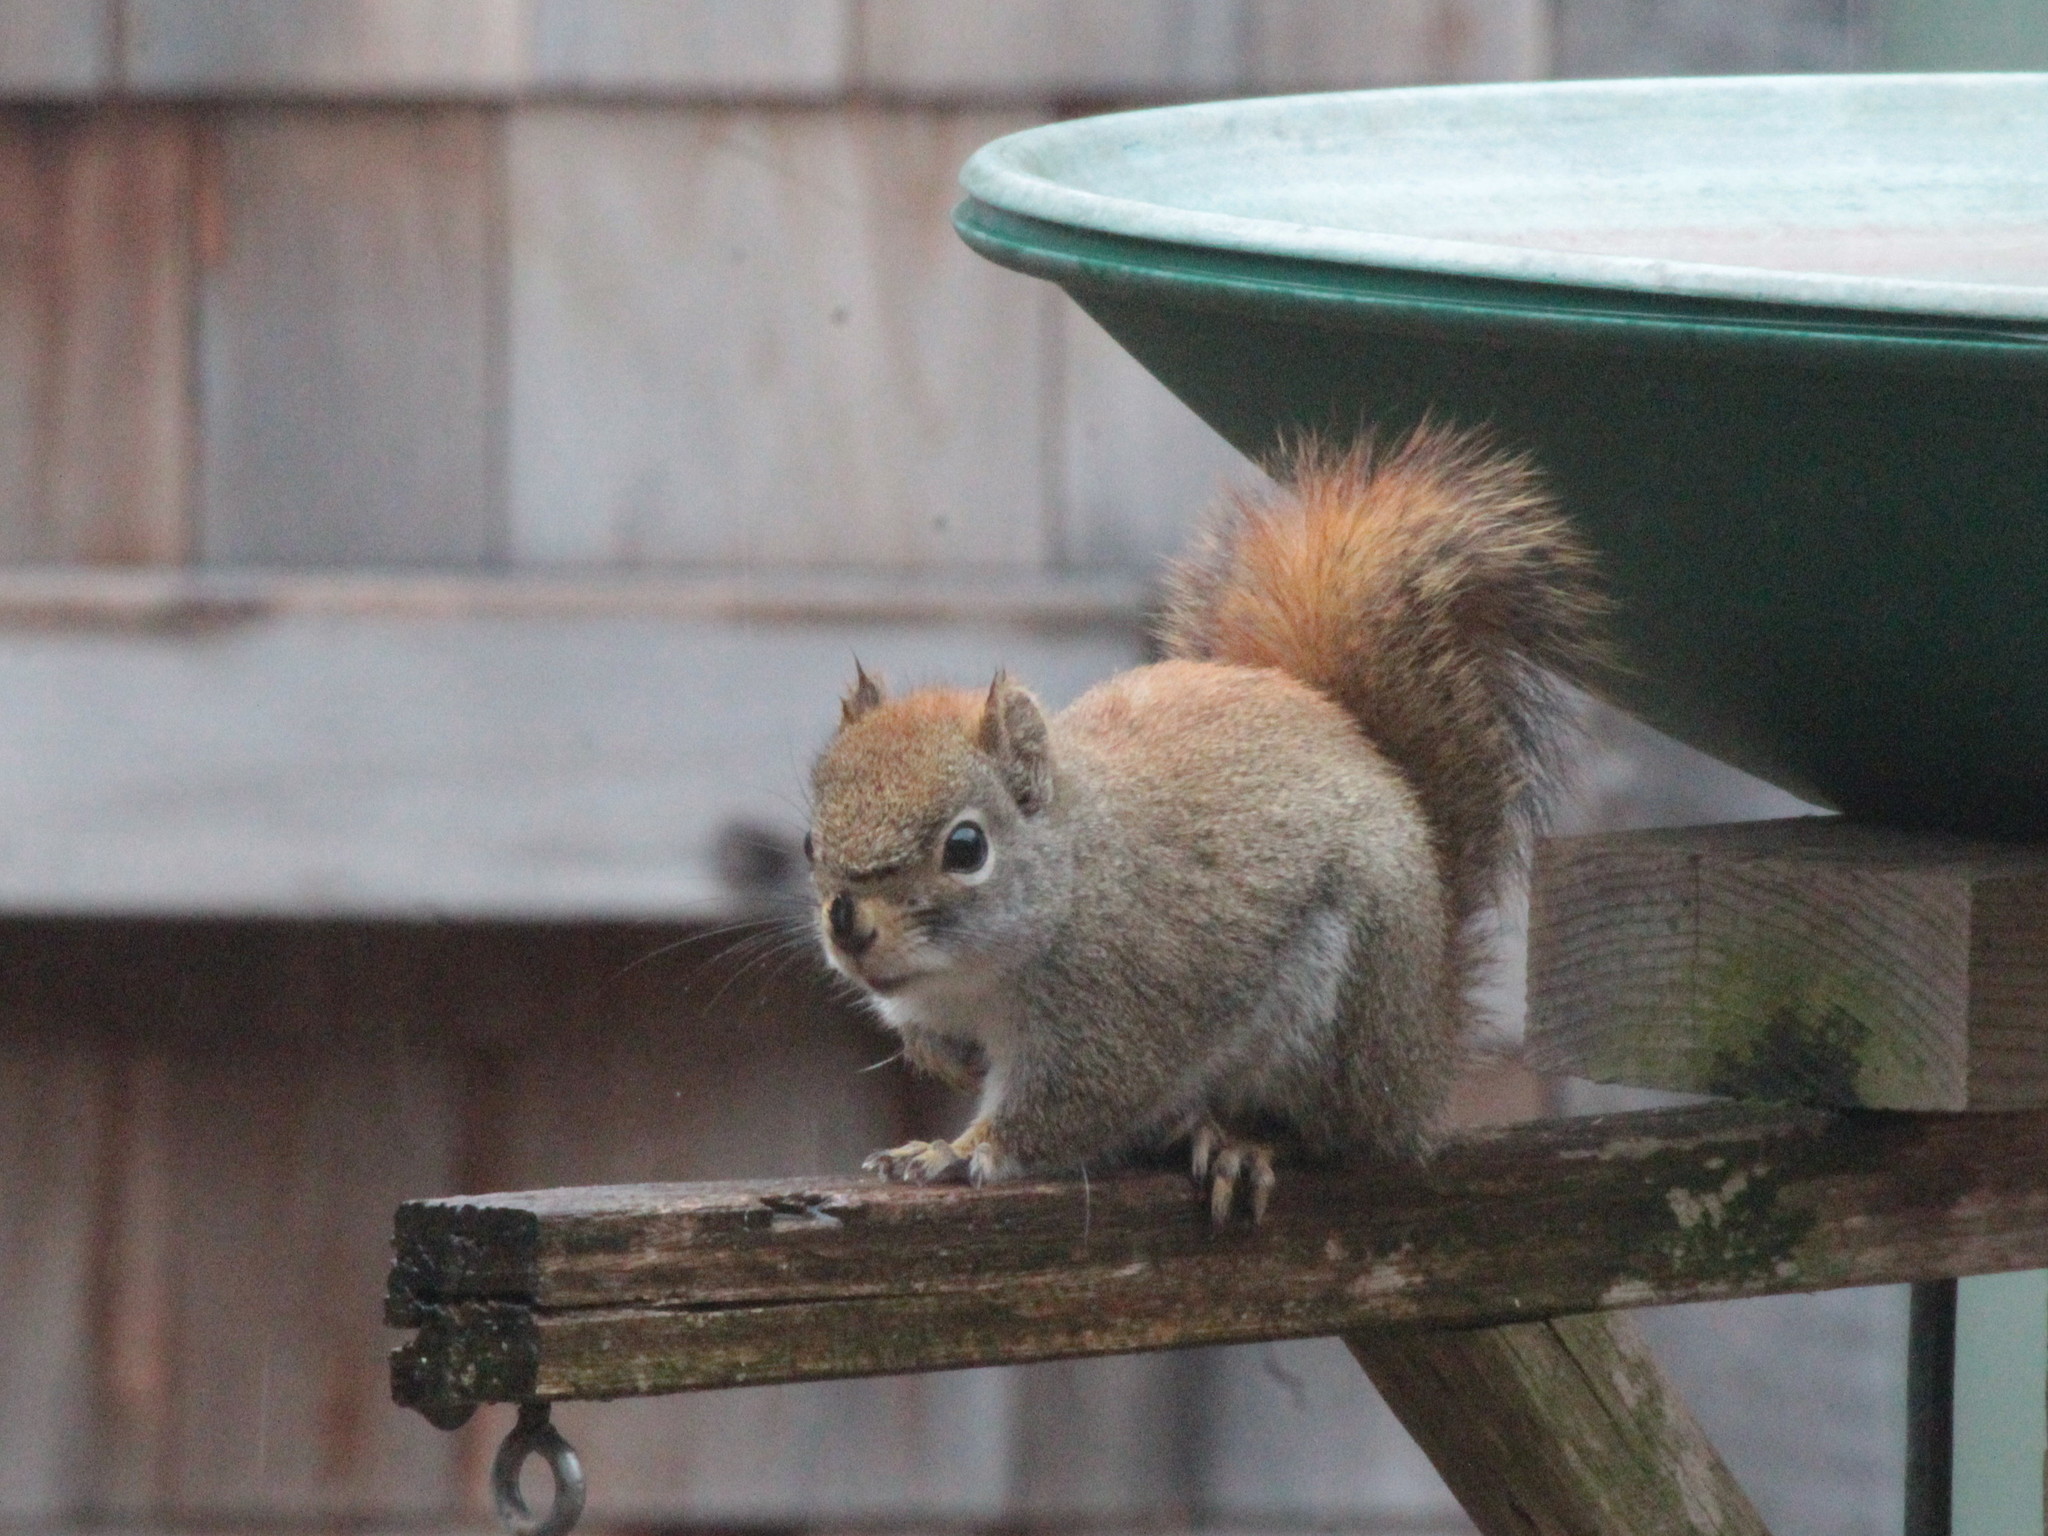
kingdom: Animalia
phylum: Chordata
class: Mammalia
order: Rodentia
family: Sciuridae
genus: Tamiasciurus
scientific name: Tamiasciurus hudsonicus
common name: Red squirrel
